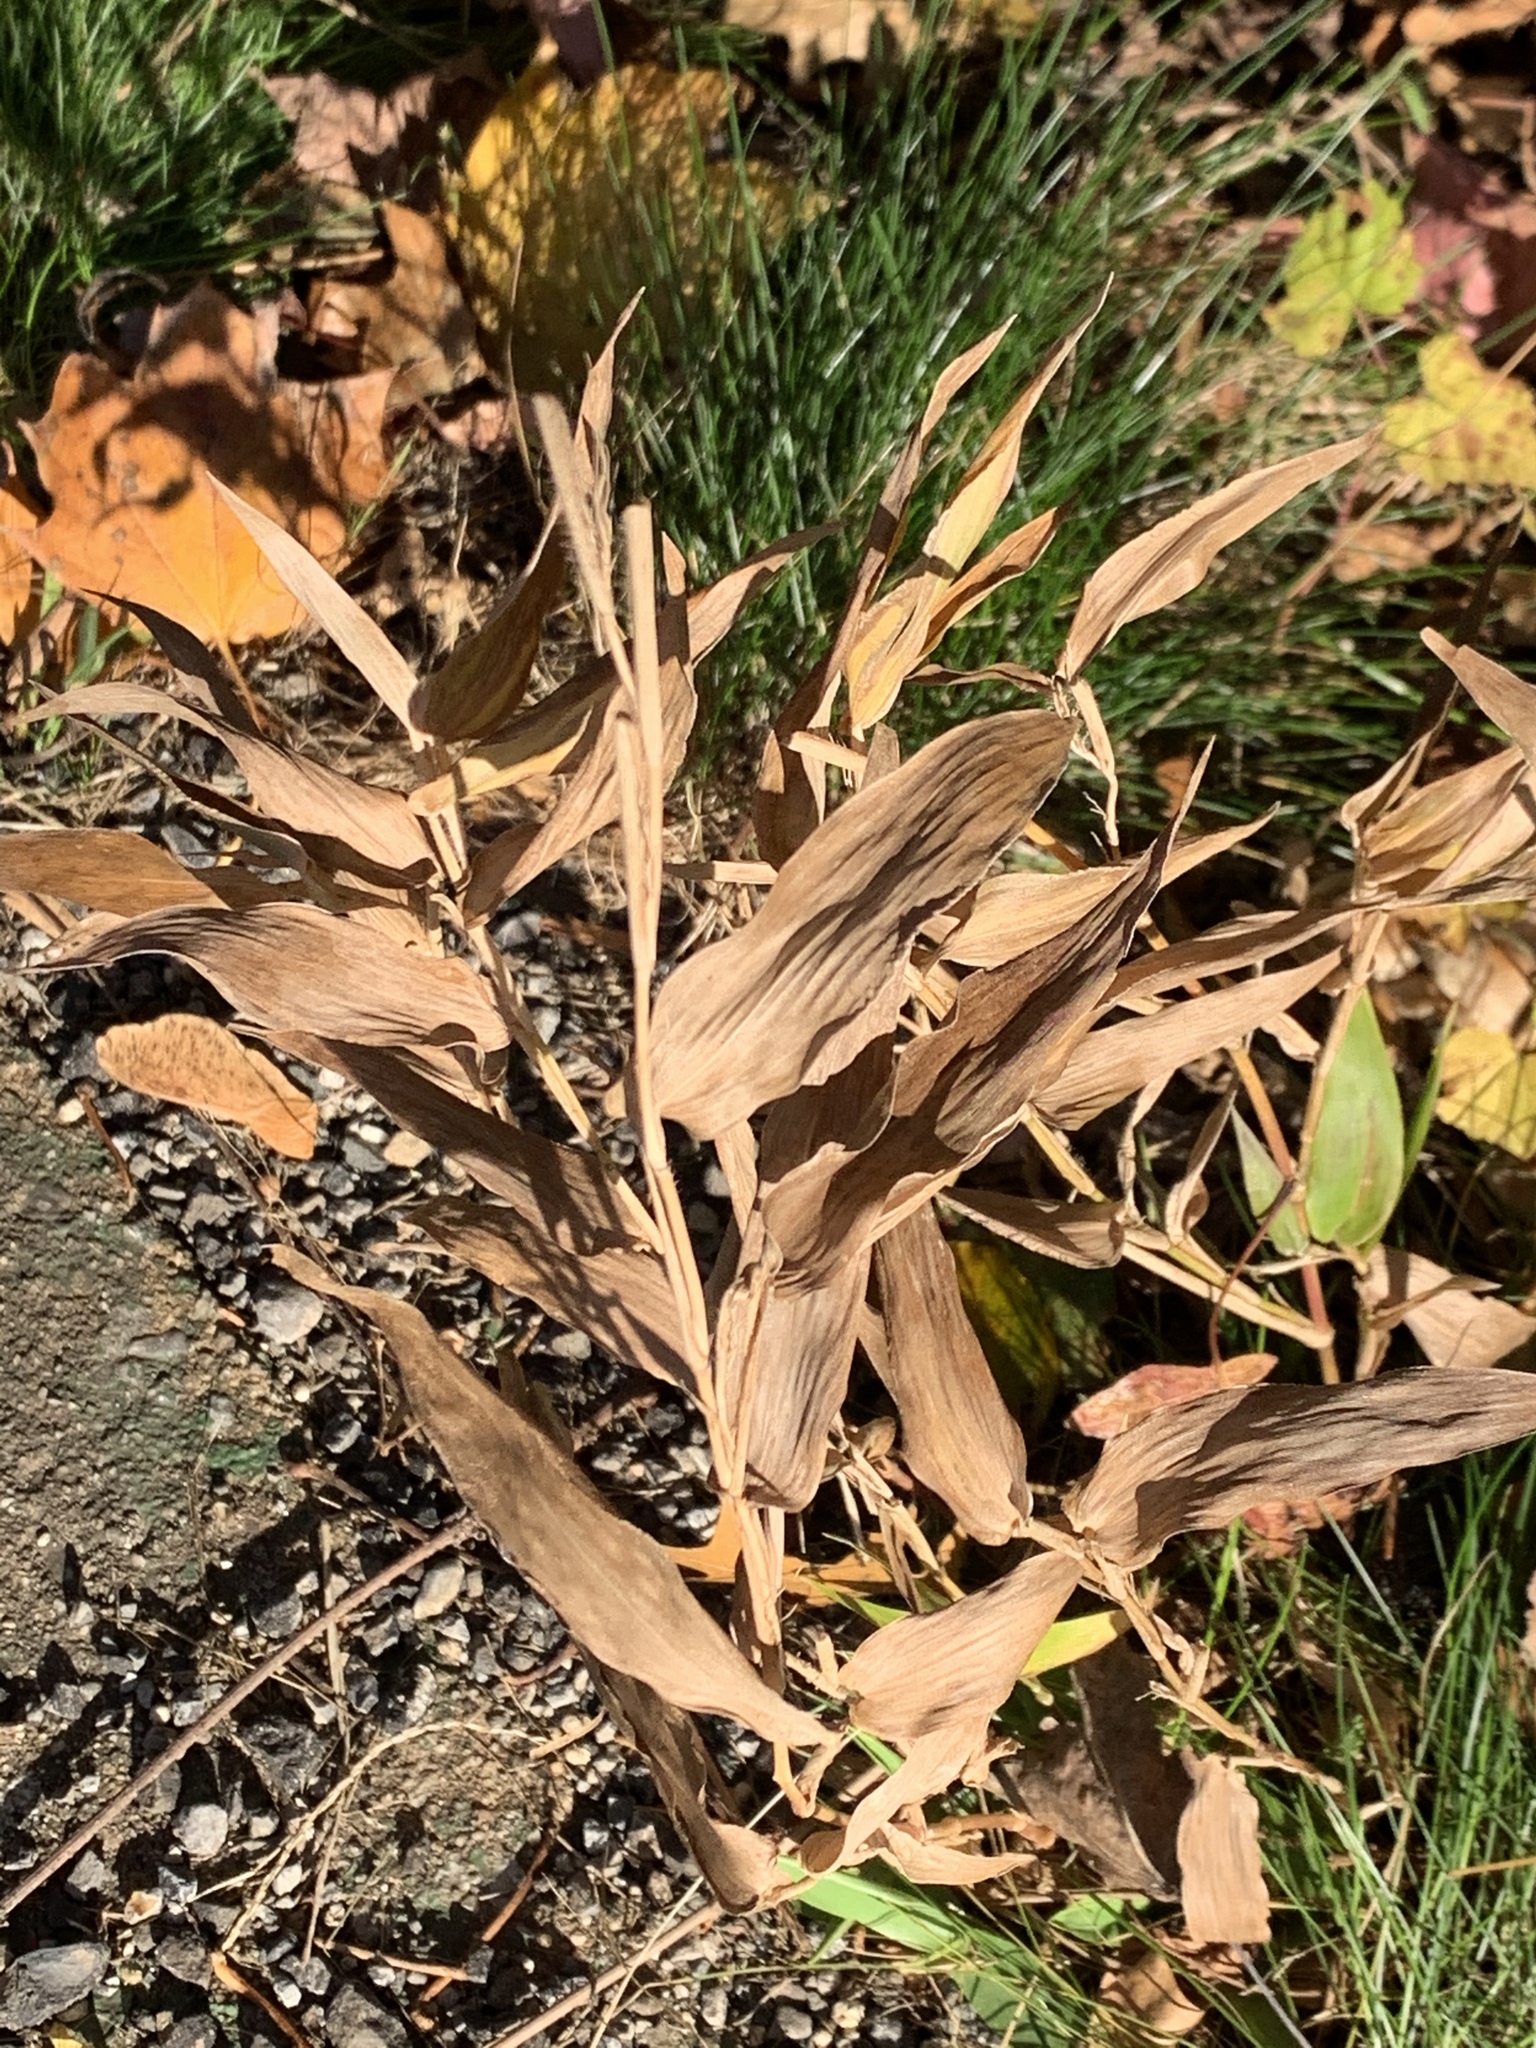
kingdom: Plantae
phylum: Tracheophyta
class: Liliopsida
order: Poales
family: Poaceae
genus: Dichanthelium
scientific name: Dichanthelium clandestinum
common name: Deer-tongue grass
